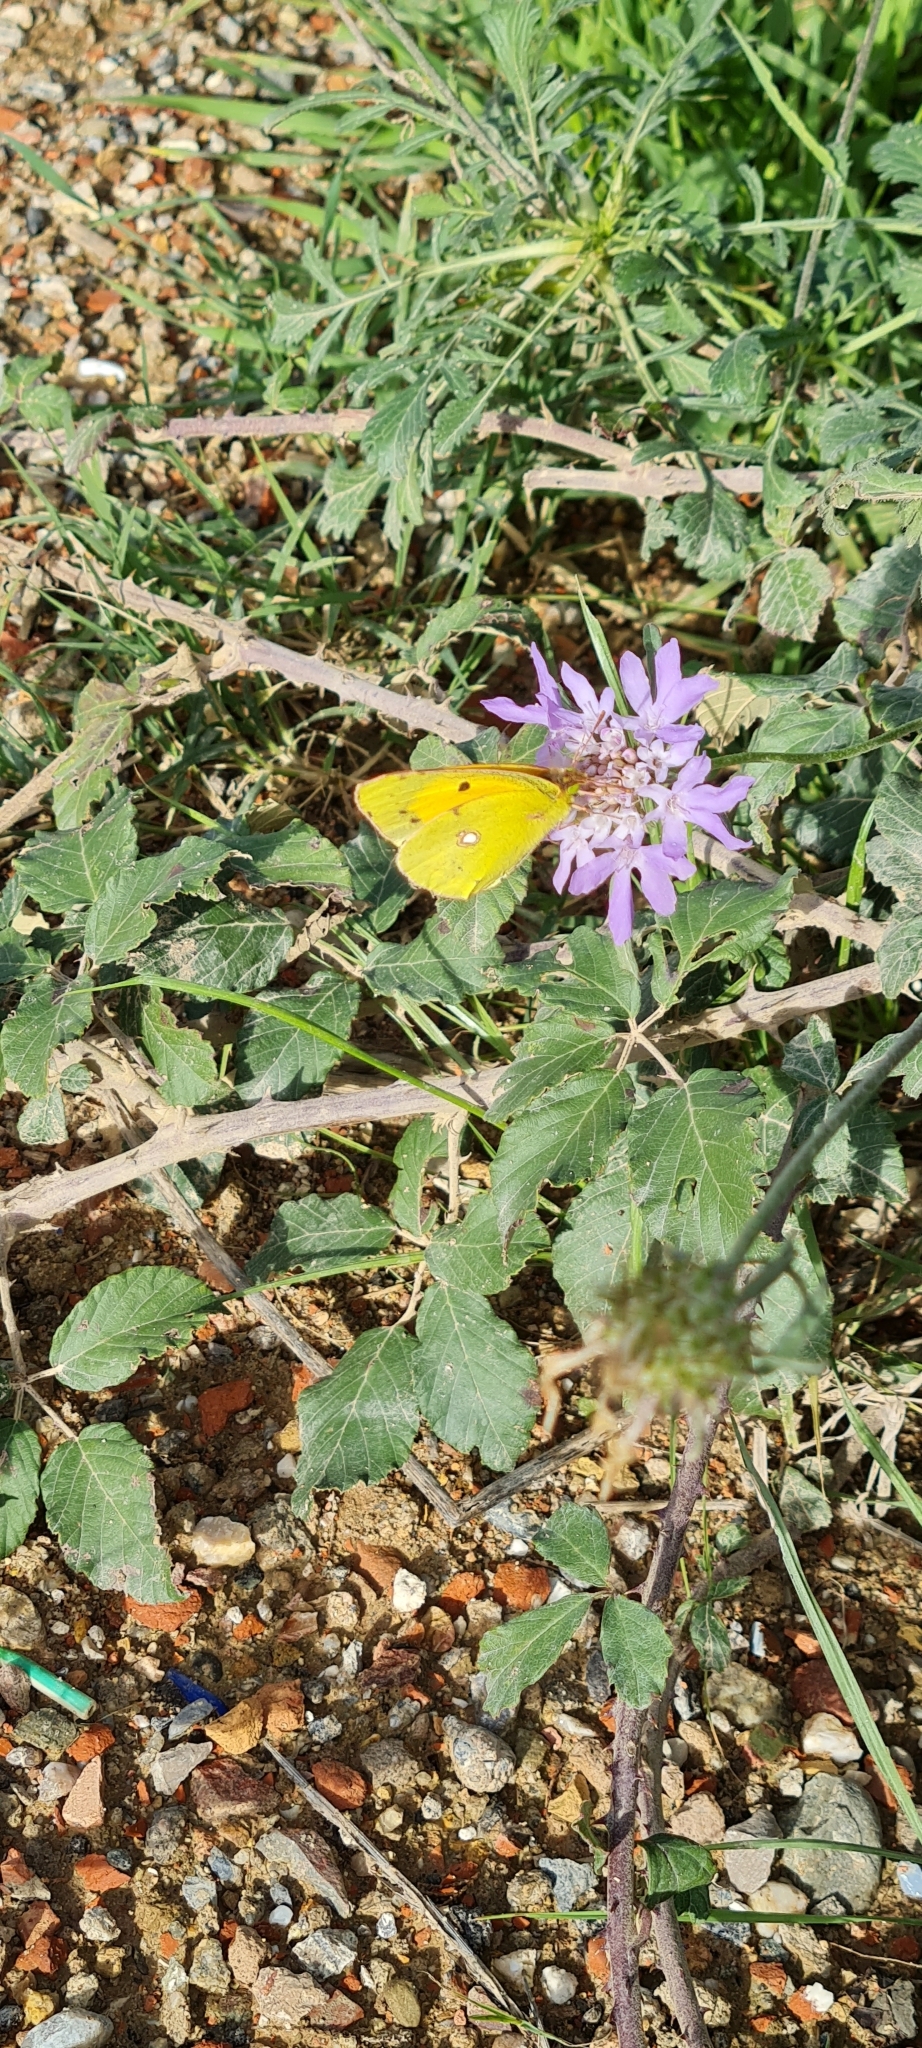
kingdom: Animalia
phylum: Arthropoda
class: Insecta
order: Lepidoptera
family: Pieridae
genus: Colias
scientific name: Colias croceus
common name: Clouded yellow
